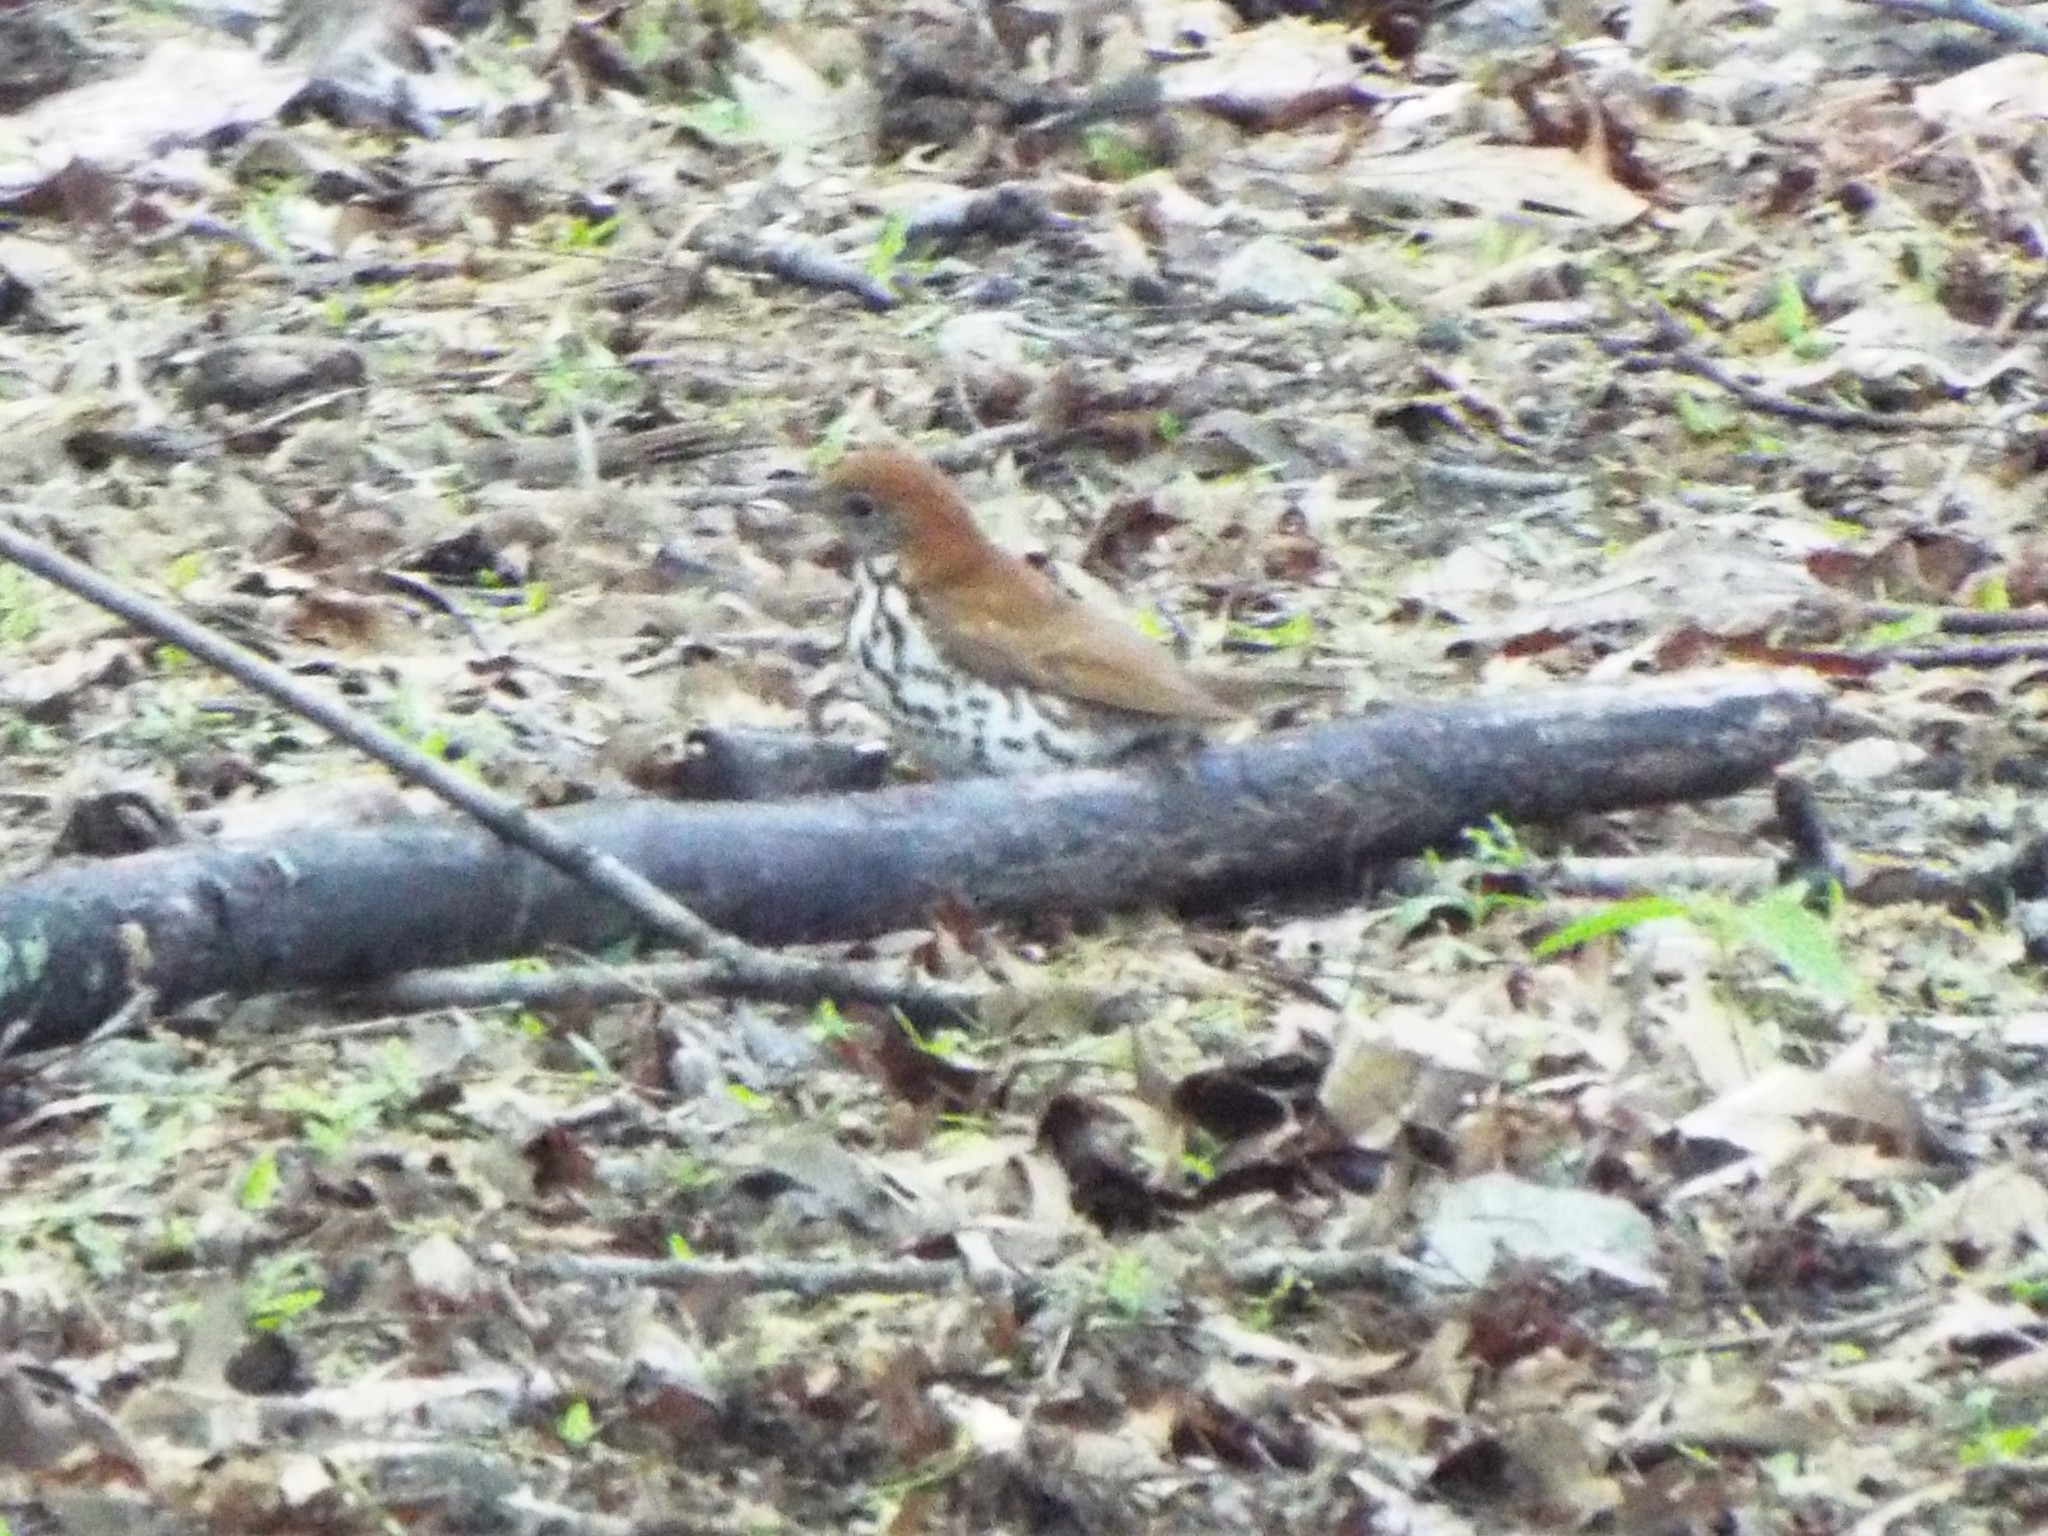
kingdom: Animalia
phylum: Chordata
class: Aves
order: Passeriformes
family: Turdidae
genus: Hylocichla
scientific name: Hylocichla mustelina
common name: Wood thrush
